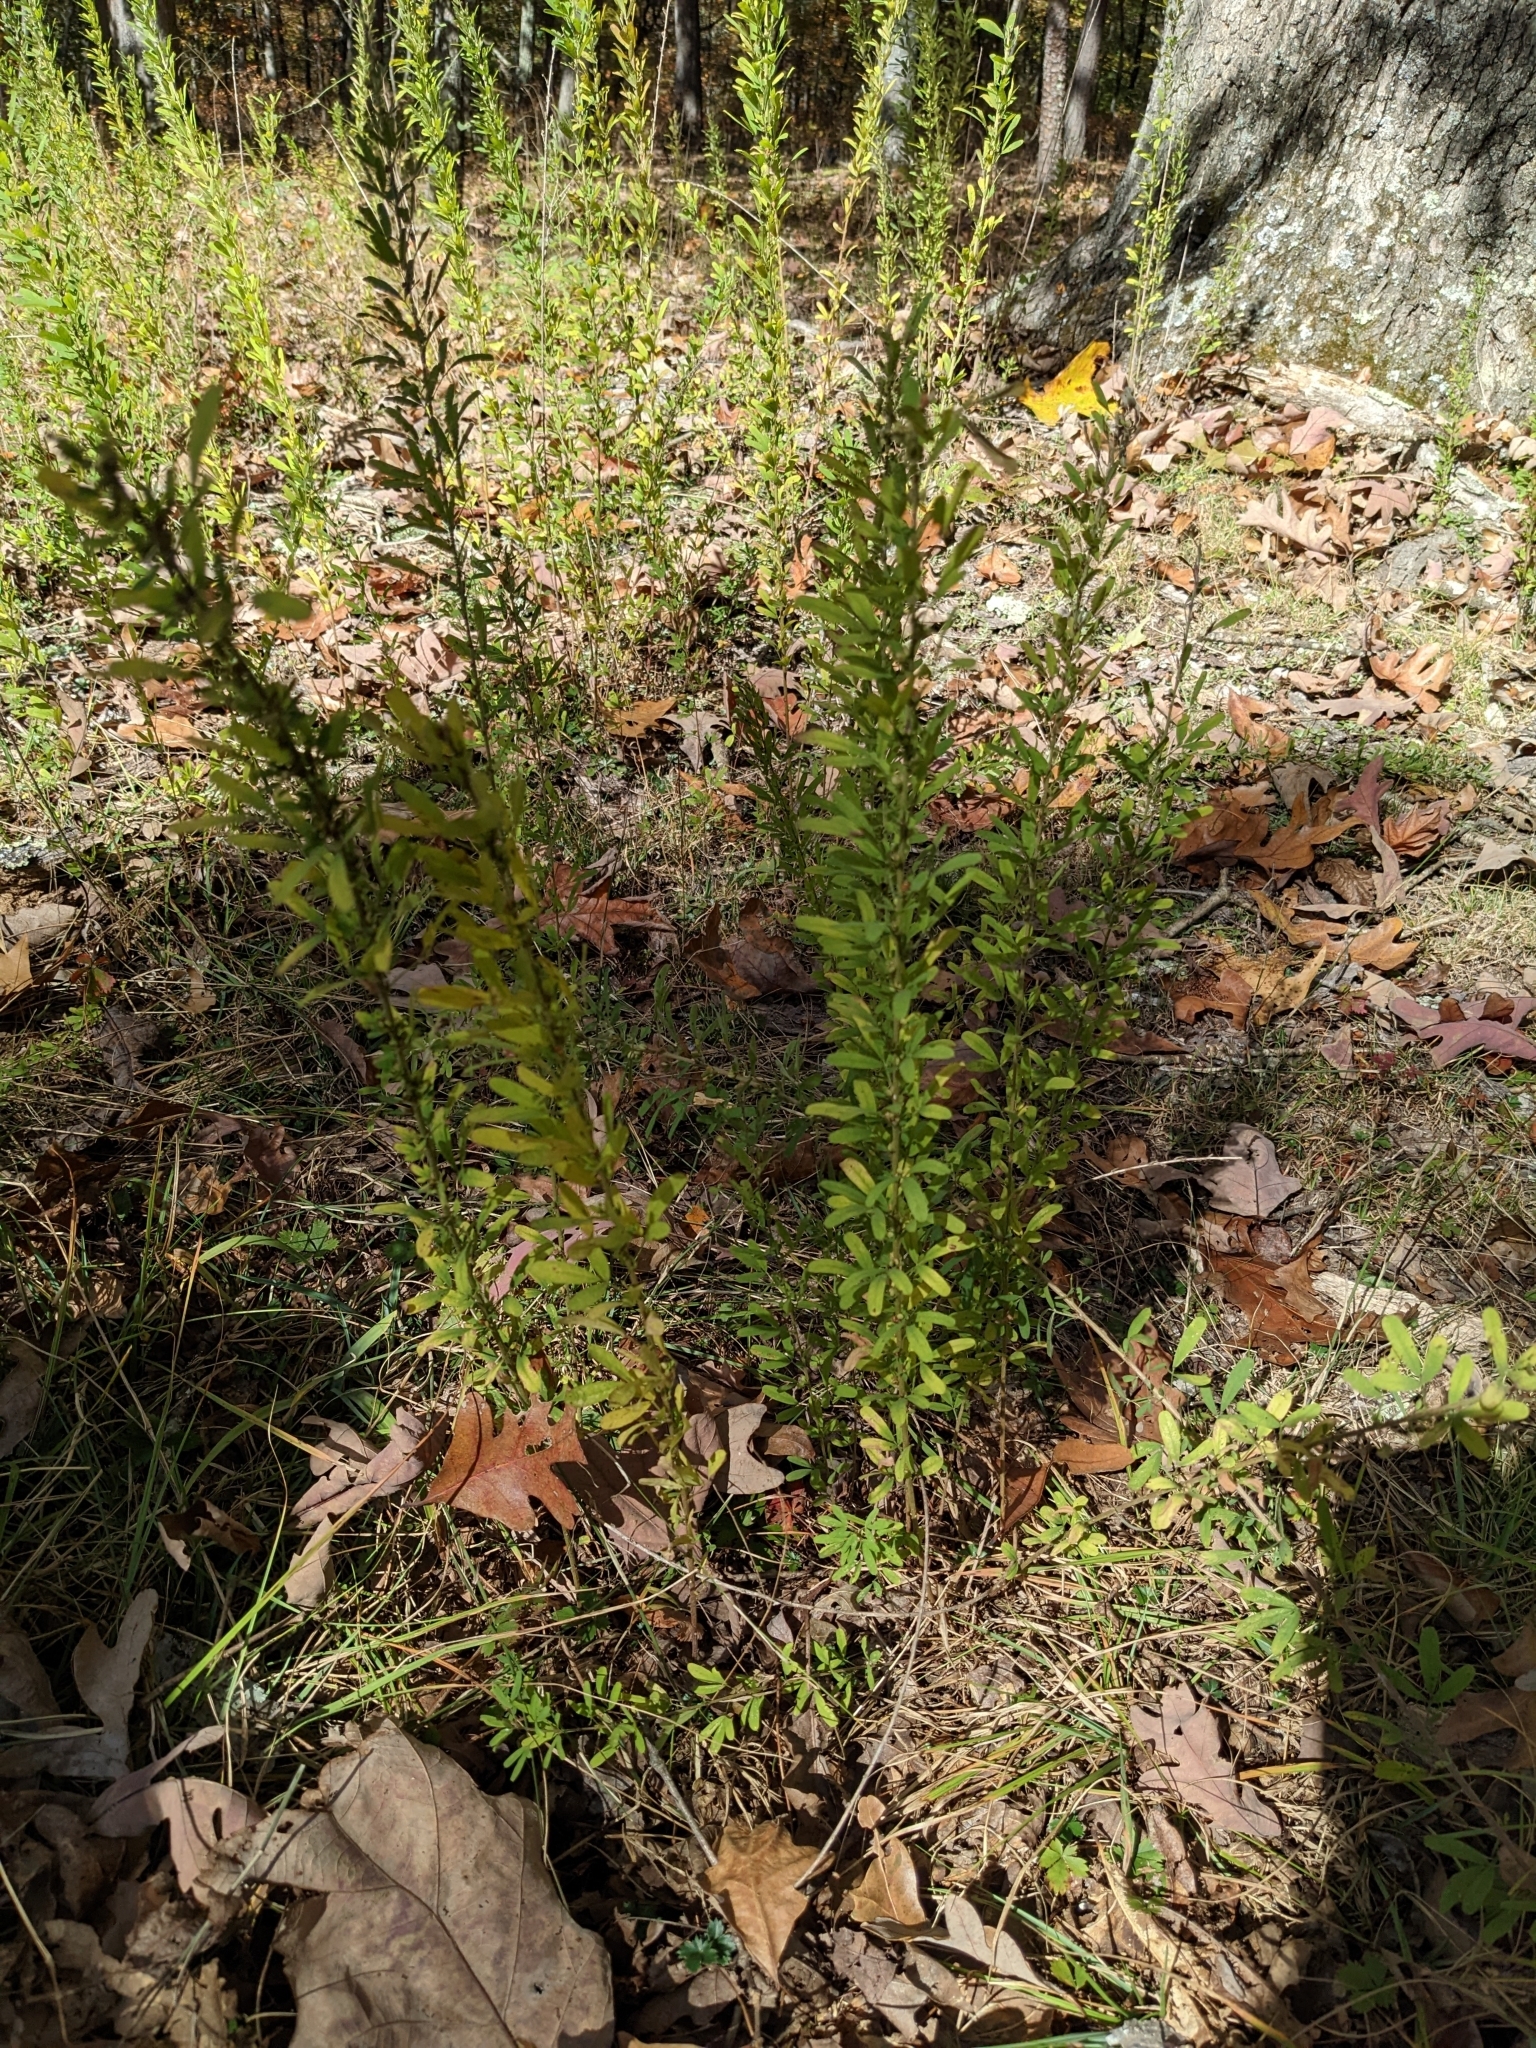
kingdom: Plantae
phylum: Tracheophyta
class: Magnoliopsida
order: Fabales
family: Fabaceae
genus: Lespedeza
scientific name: Lespedeza cuneata
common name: Chinese bush-clover
